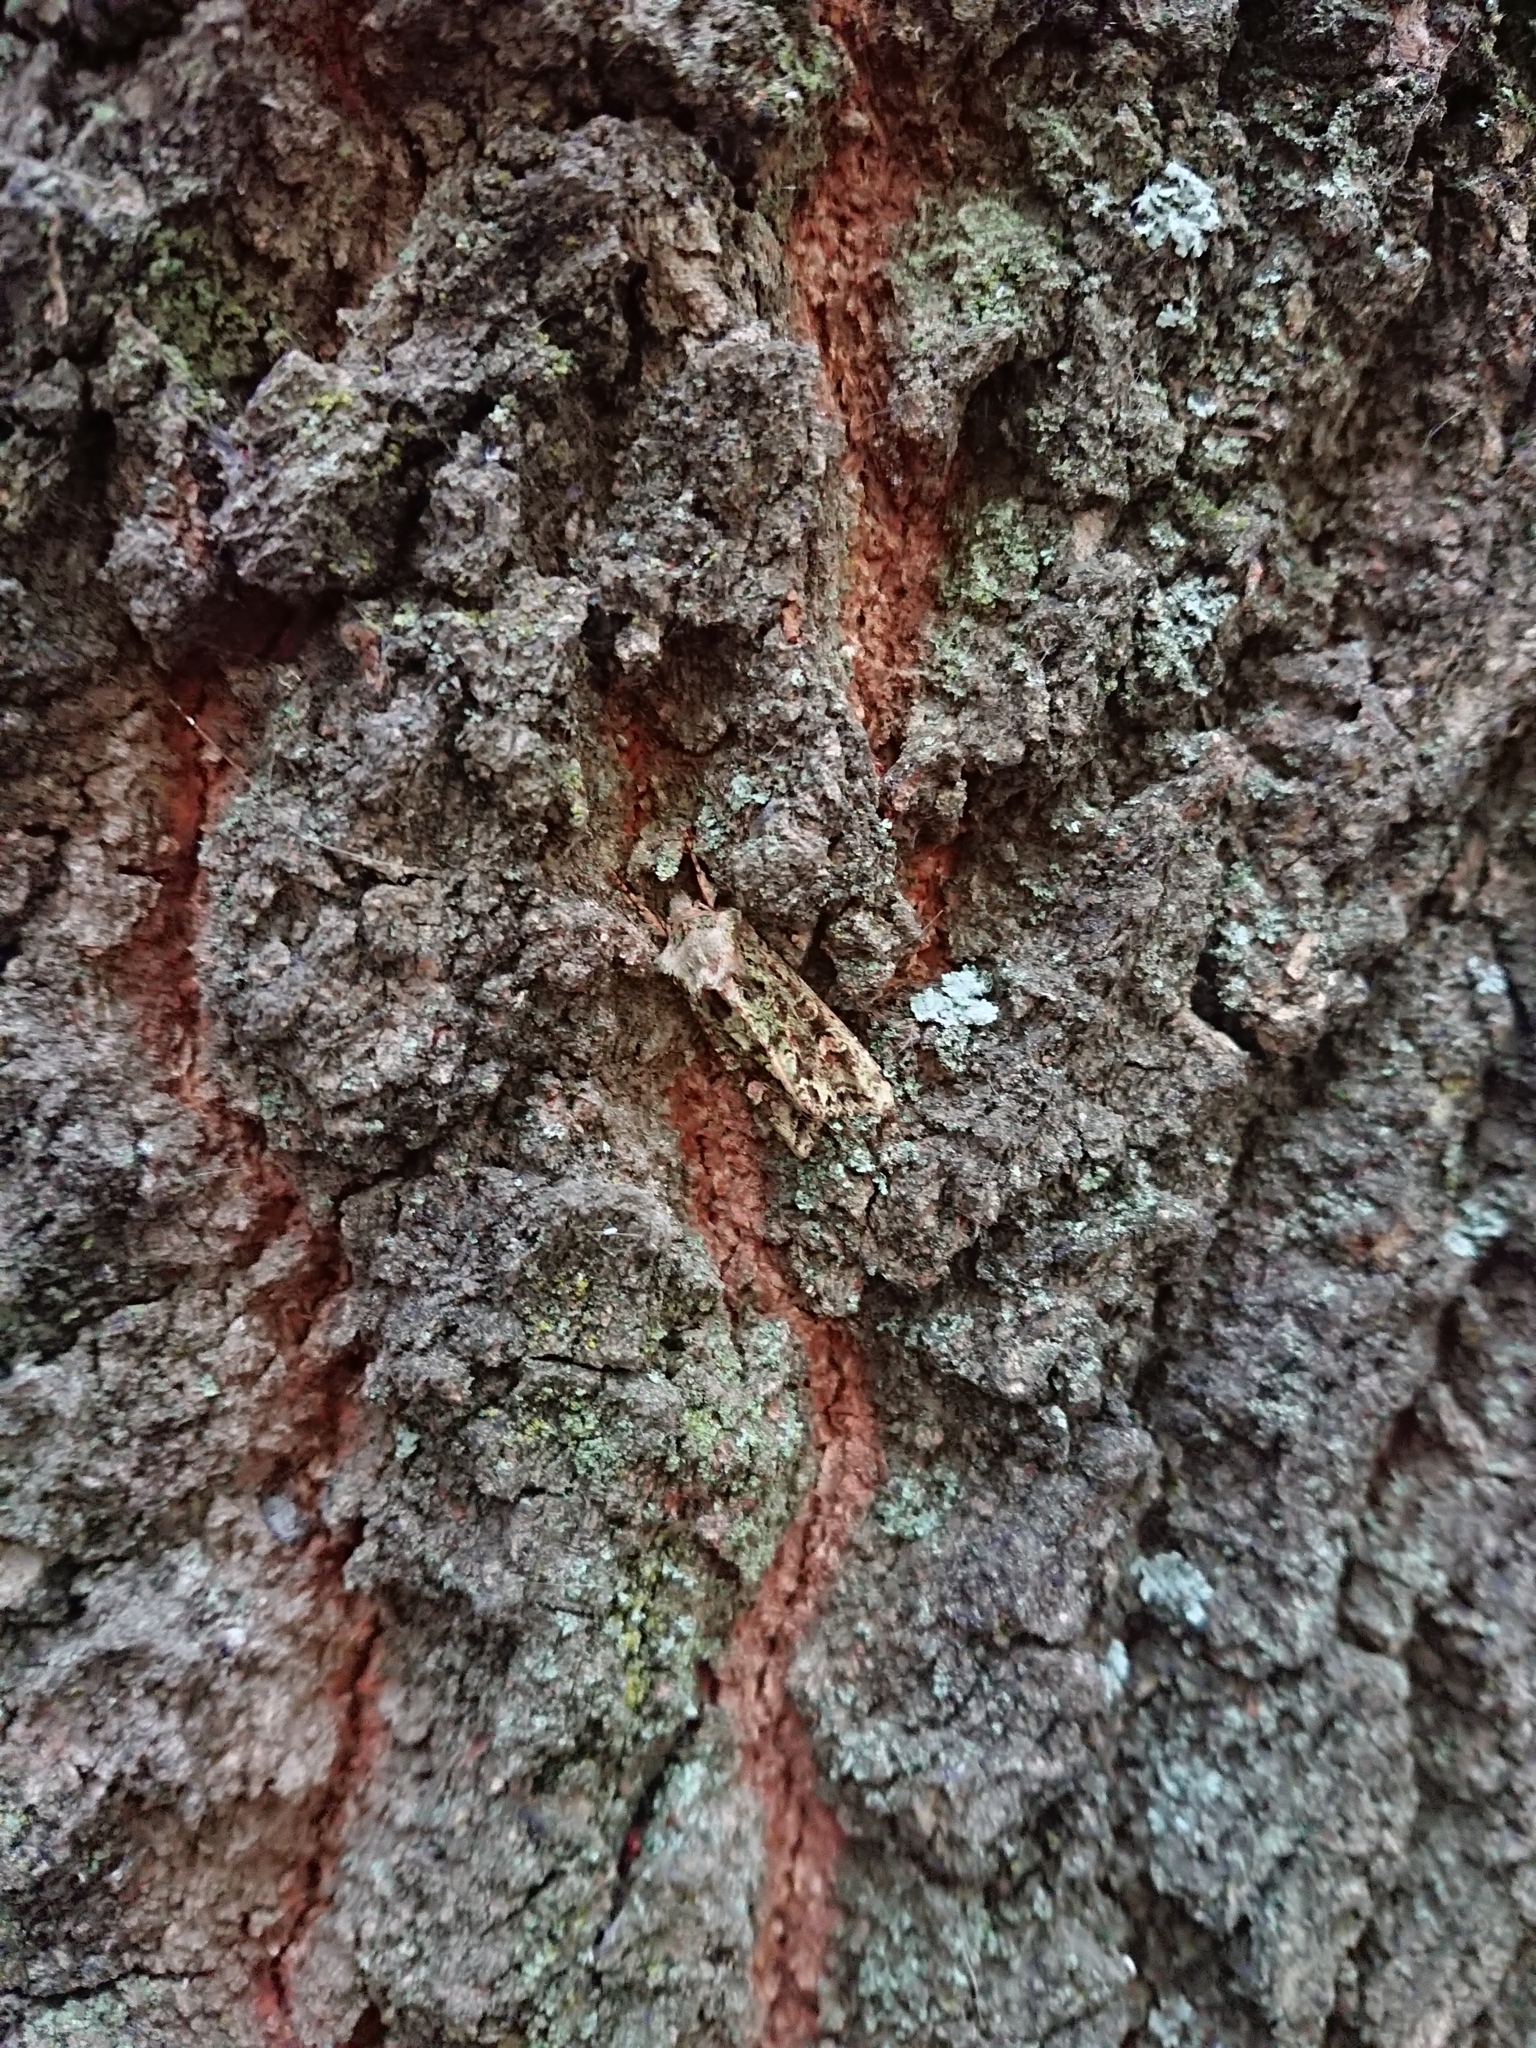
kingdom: Animalia
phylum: Arthropoda
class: Insecta
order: Lepidoptera
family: Noctuidae
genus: Ichneutica
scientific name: Ichneutica
